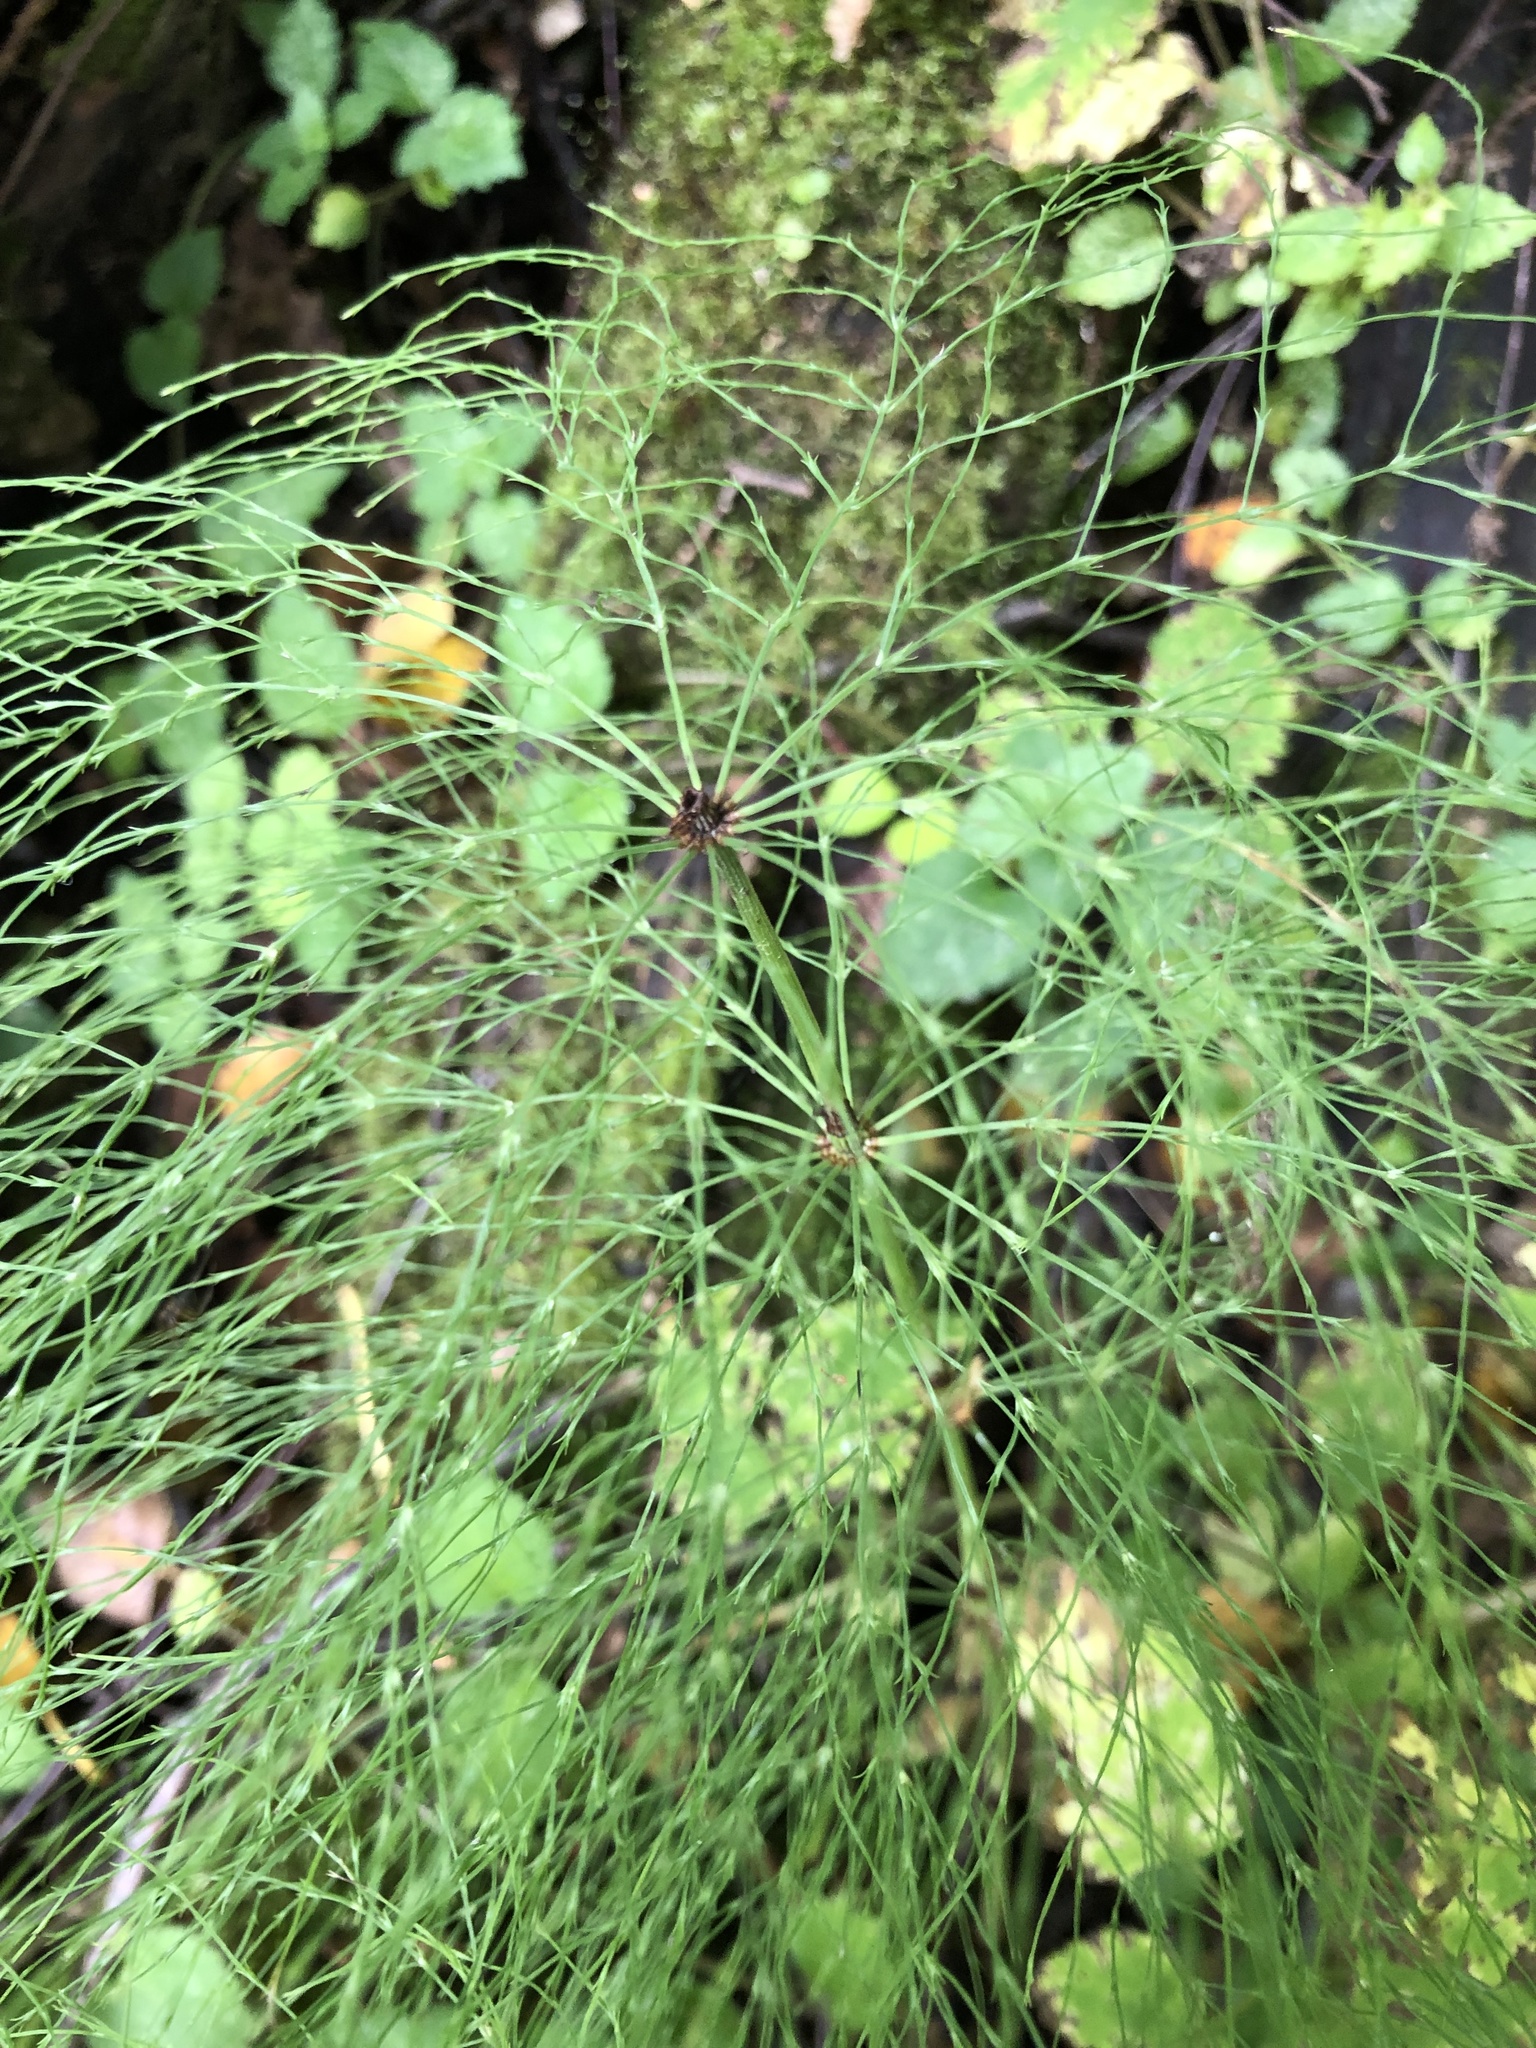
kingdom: Plantae
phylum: Tracheophyta
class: Polypodiopsida
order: Equisetales
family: Equisetaceae
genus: Equisetum
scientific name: Equisetum sylvaticum
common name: Wood horsetail
